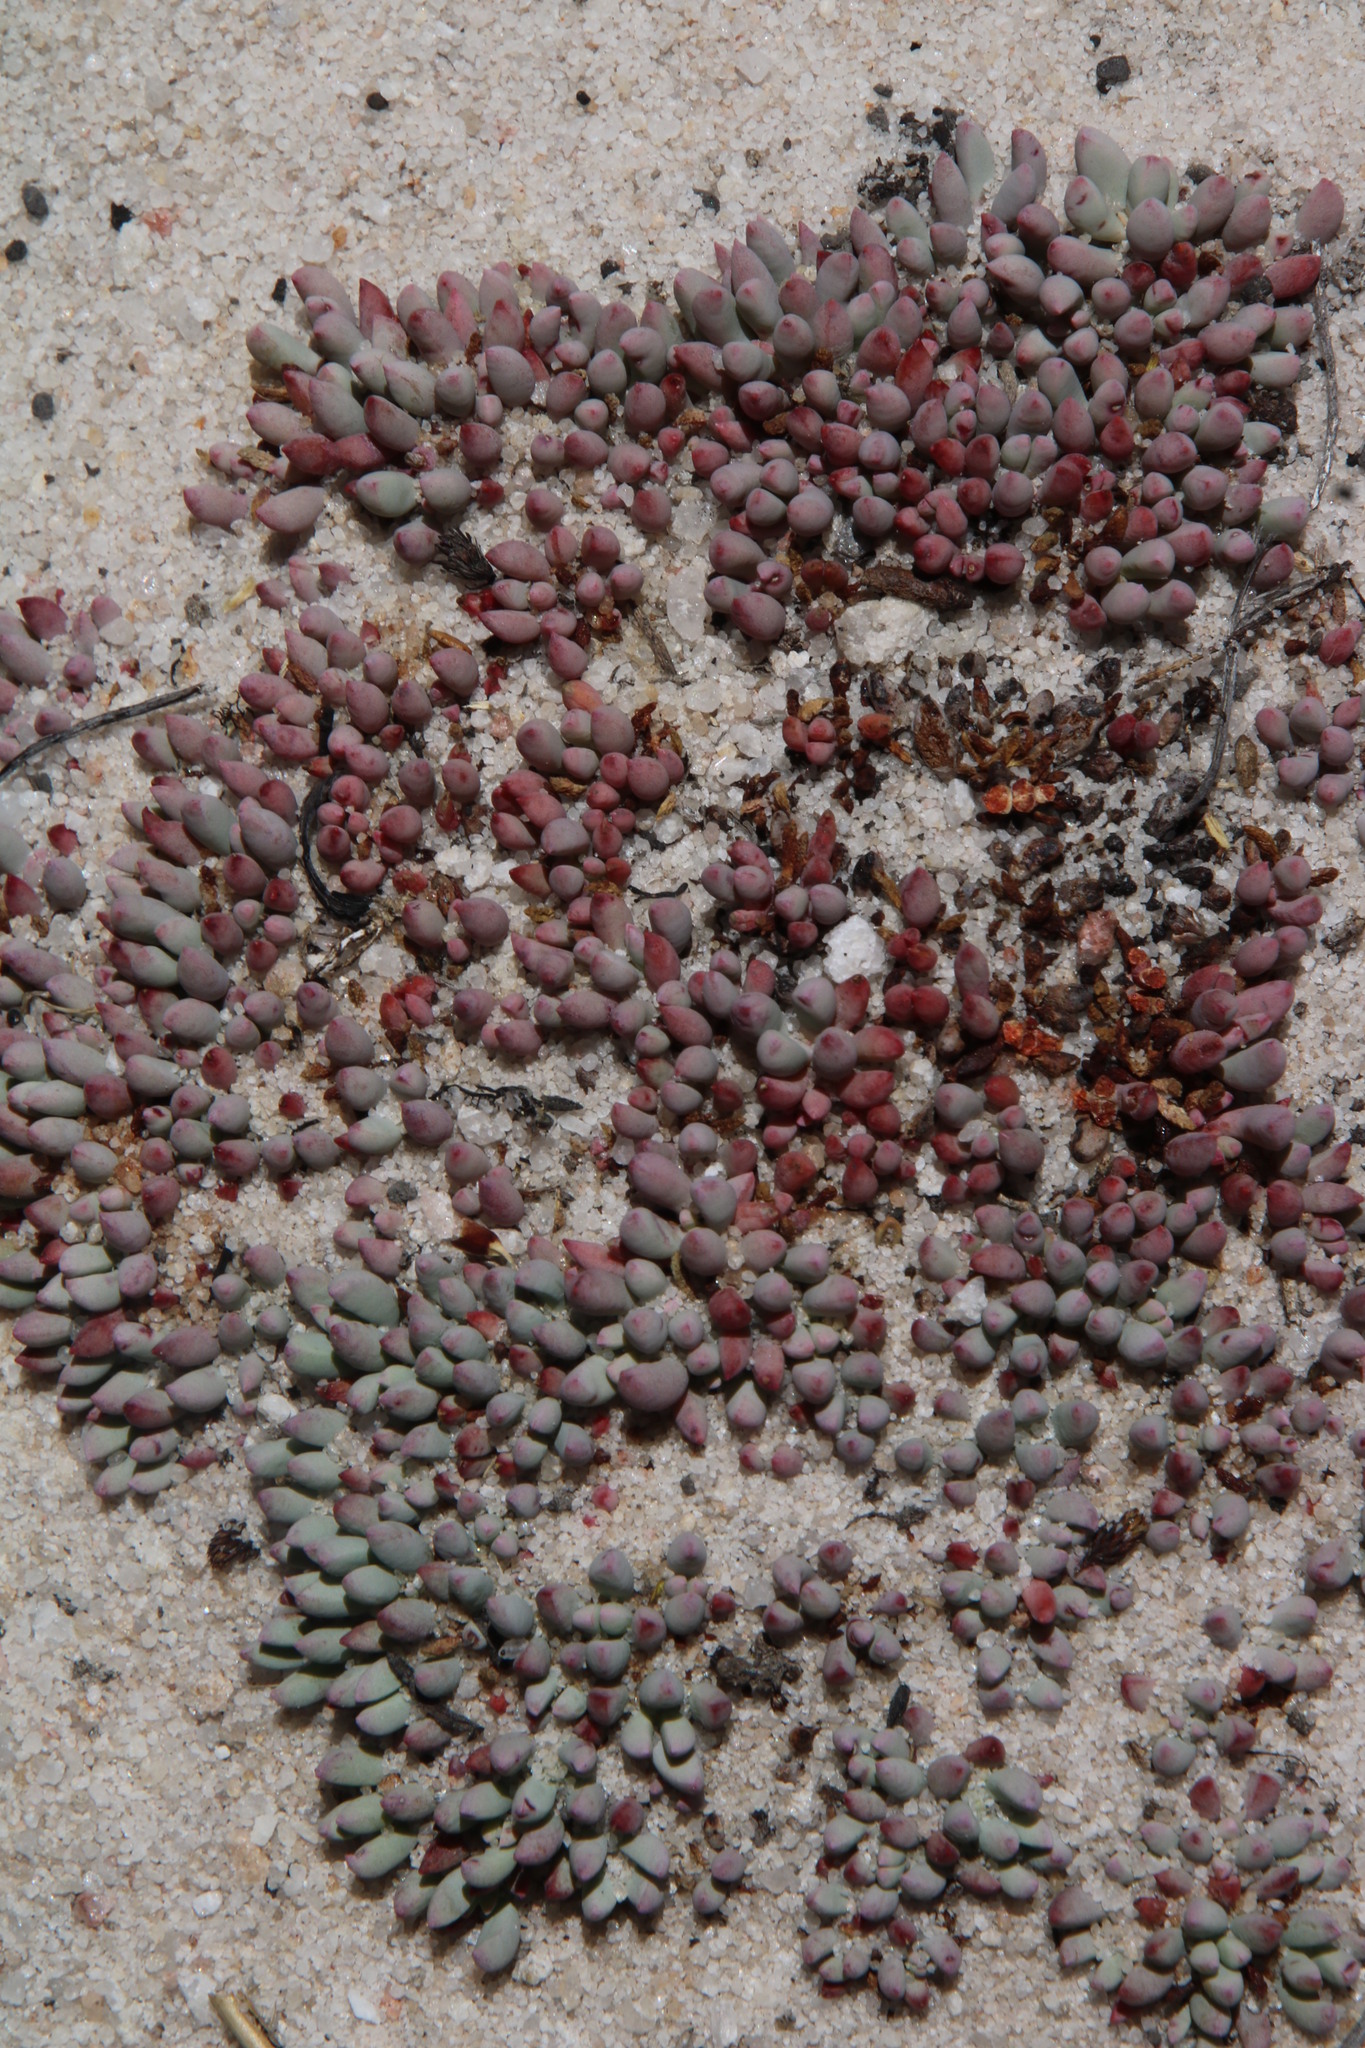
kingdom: Plantae
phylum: Tracheophyta
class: Magnoliopsida
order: Caryophyllales
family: Aizoaceae
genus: Esterhuysenia
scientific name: Esterhuysenia alpina
